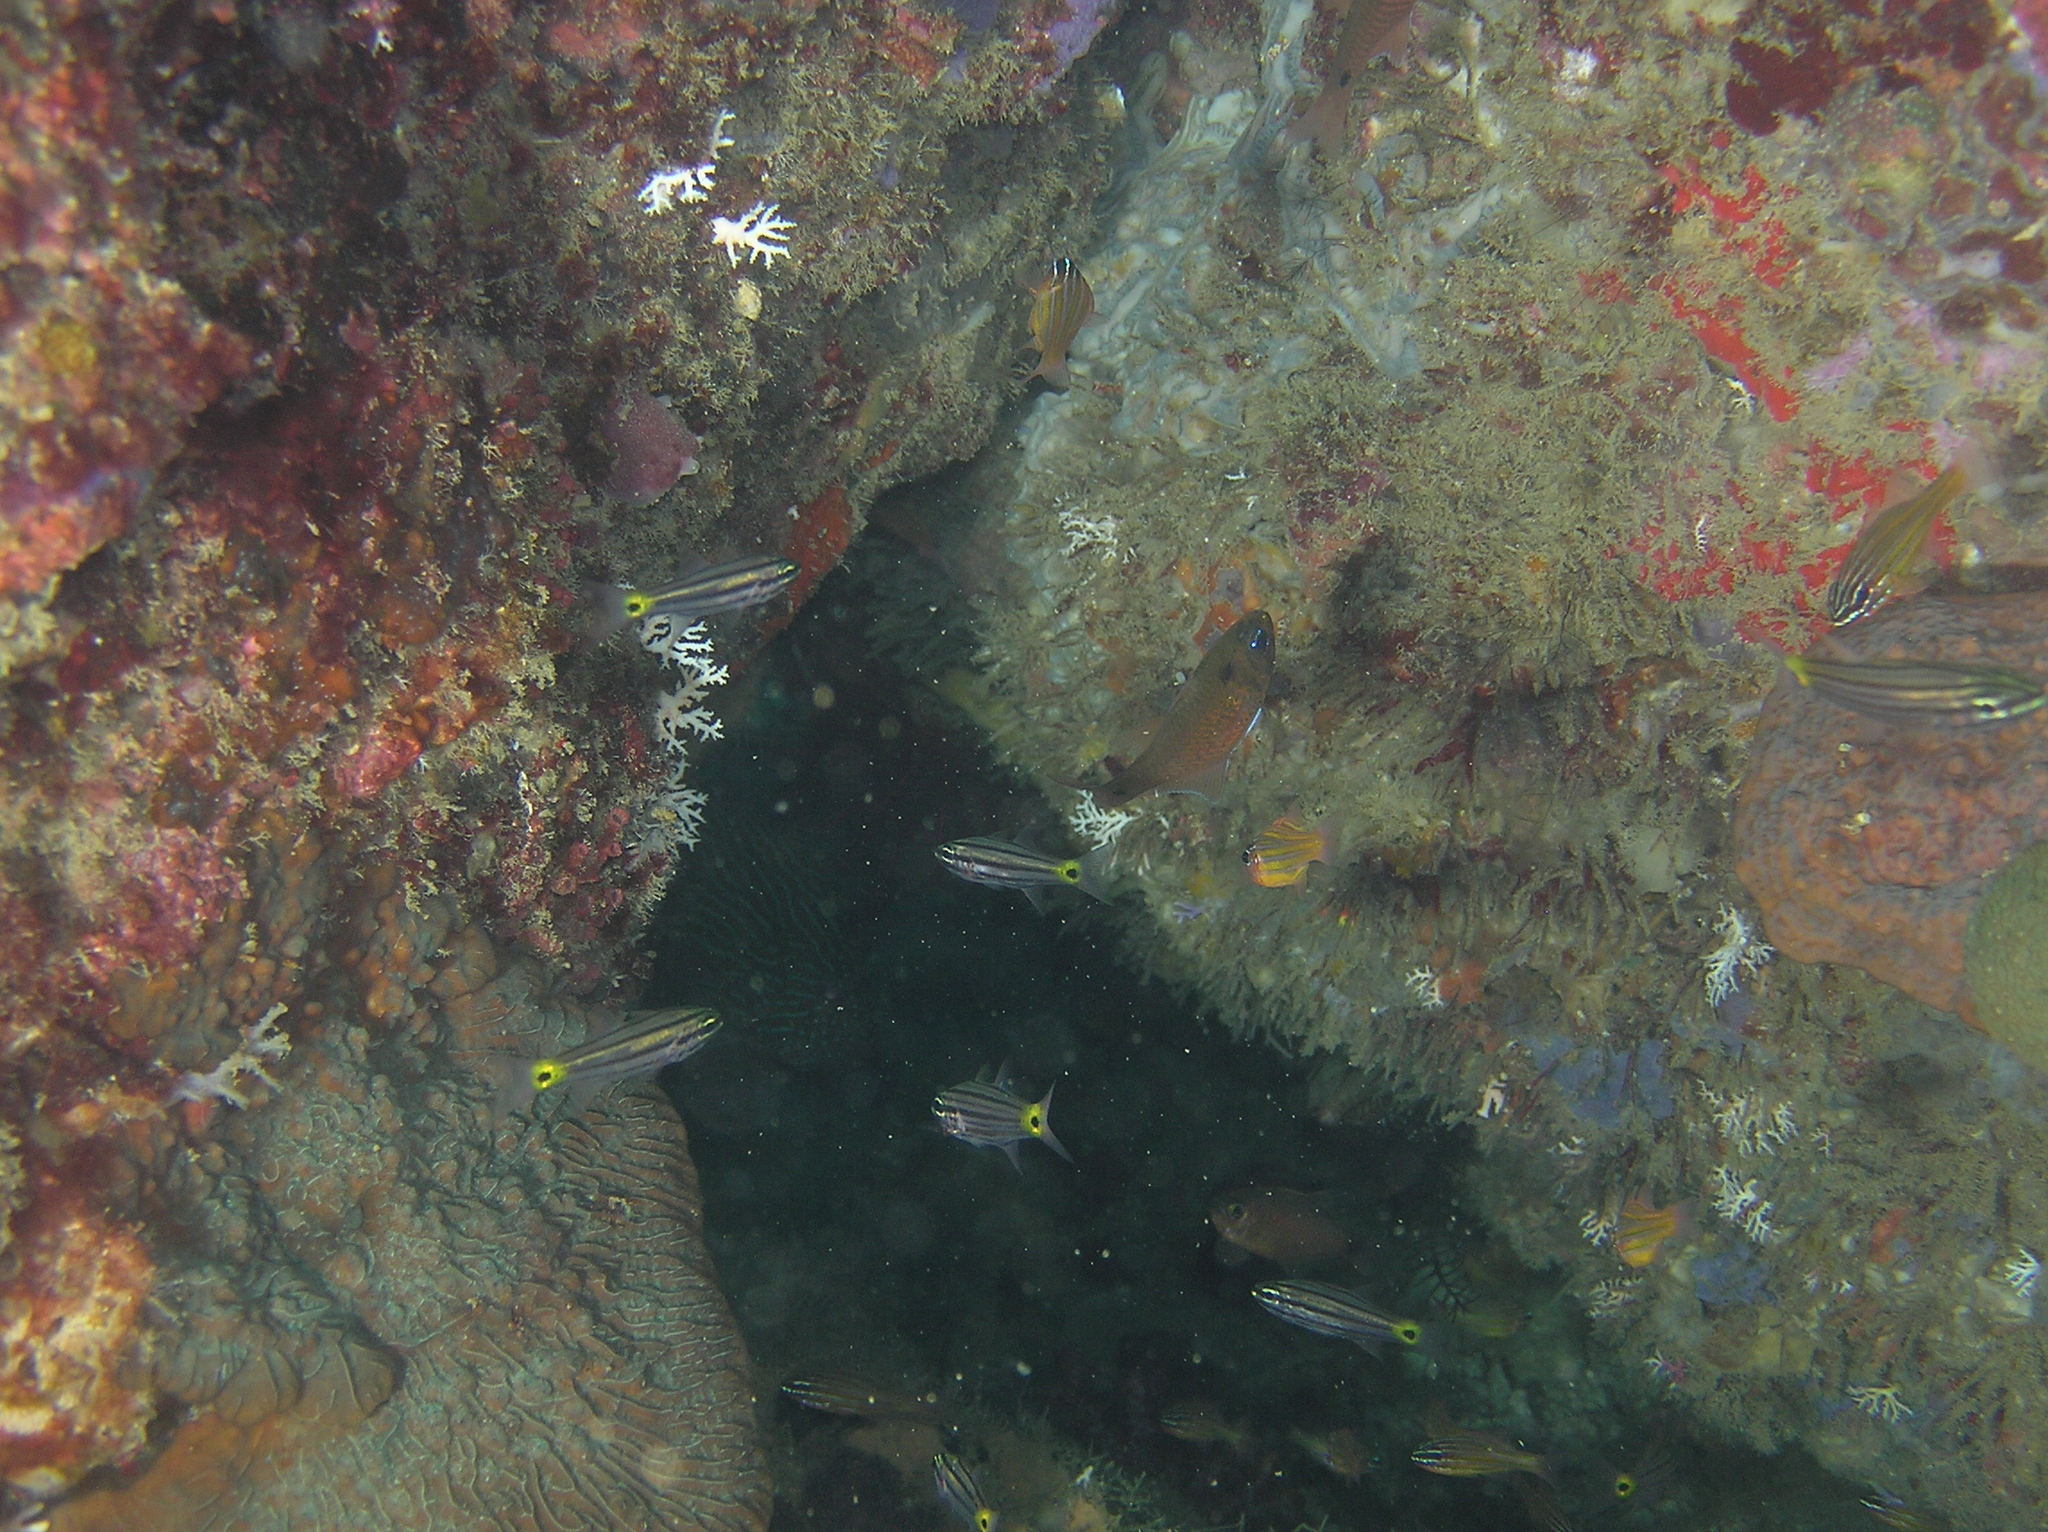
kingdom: Animalia
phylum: Chordata
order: Perciformes
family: Apogonidae
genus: Taeniamia
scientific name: Taeniamia biguttata
